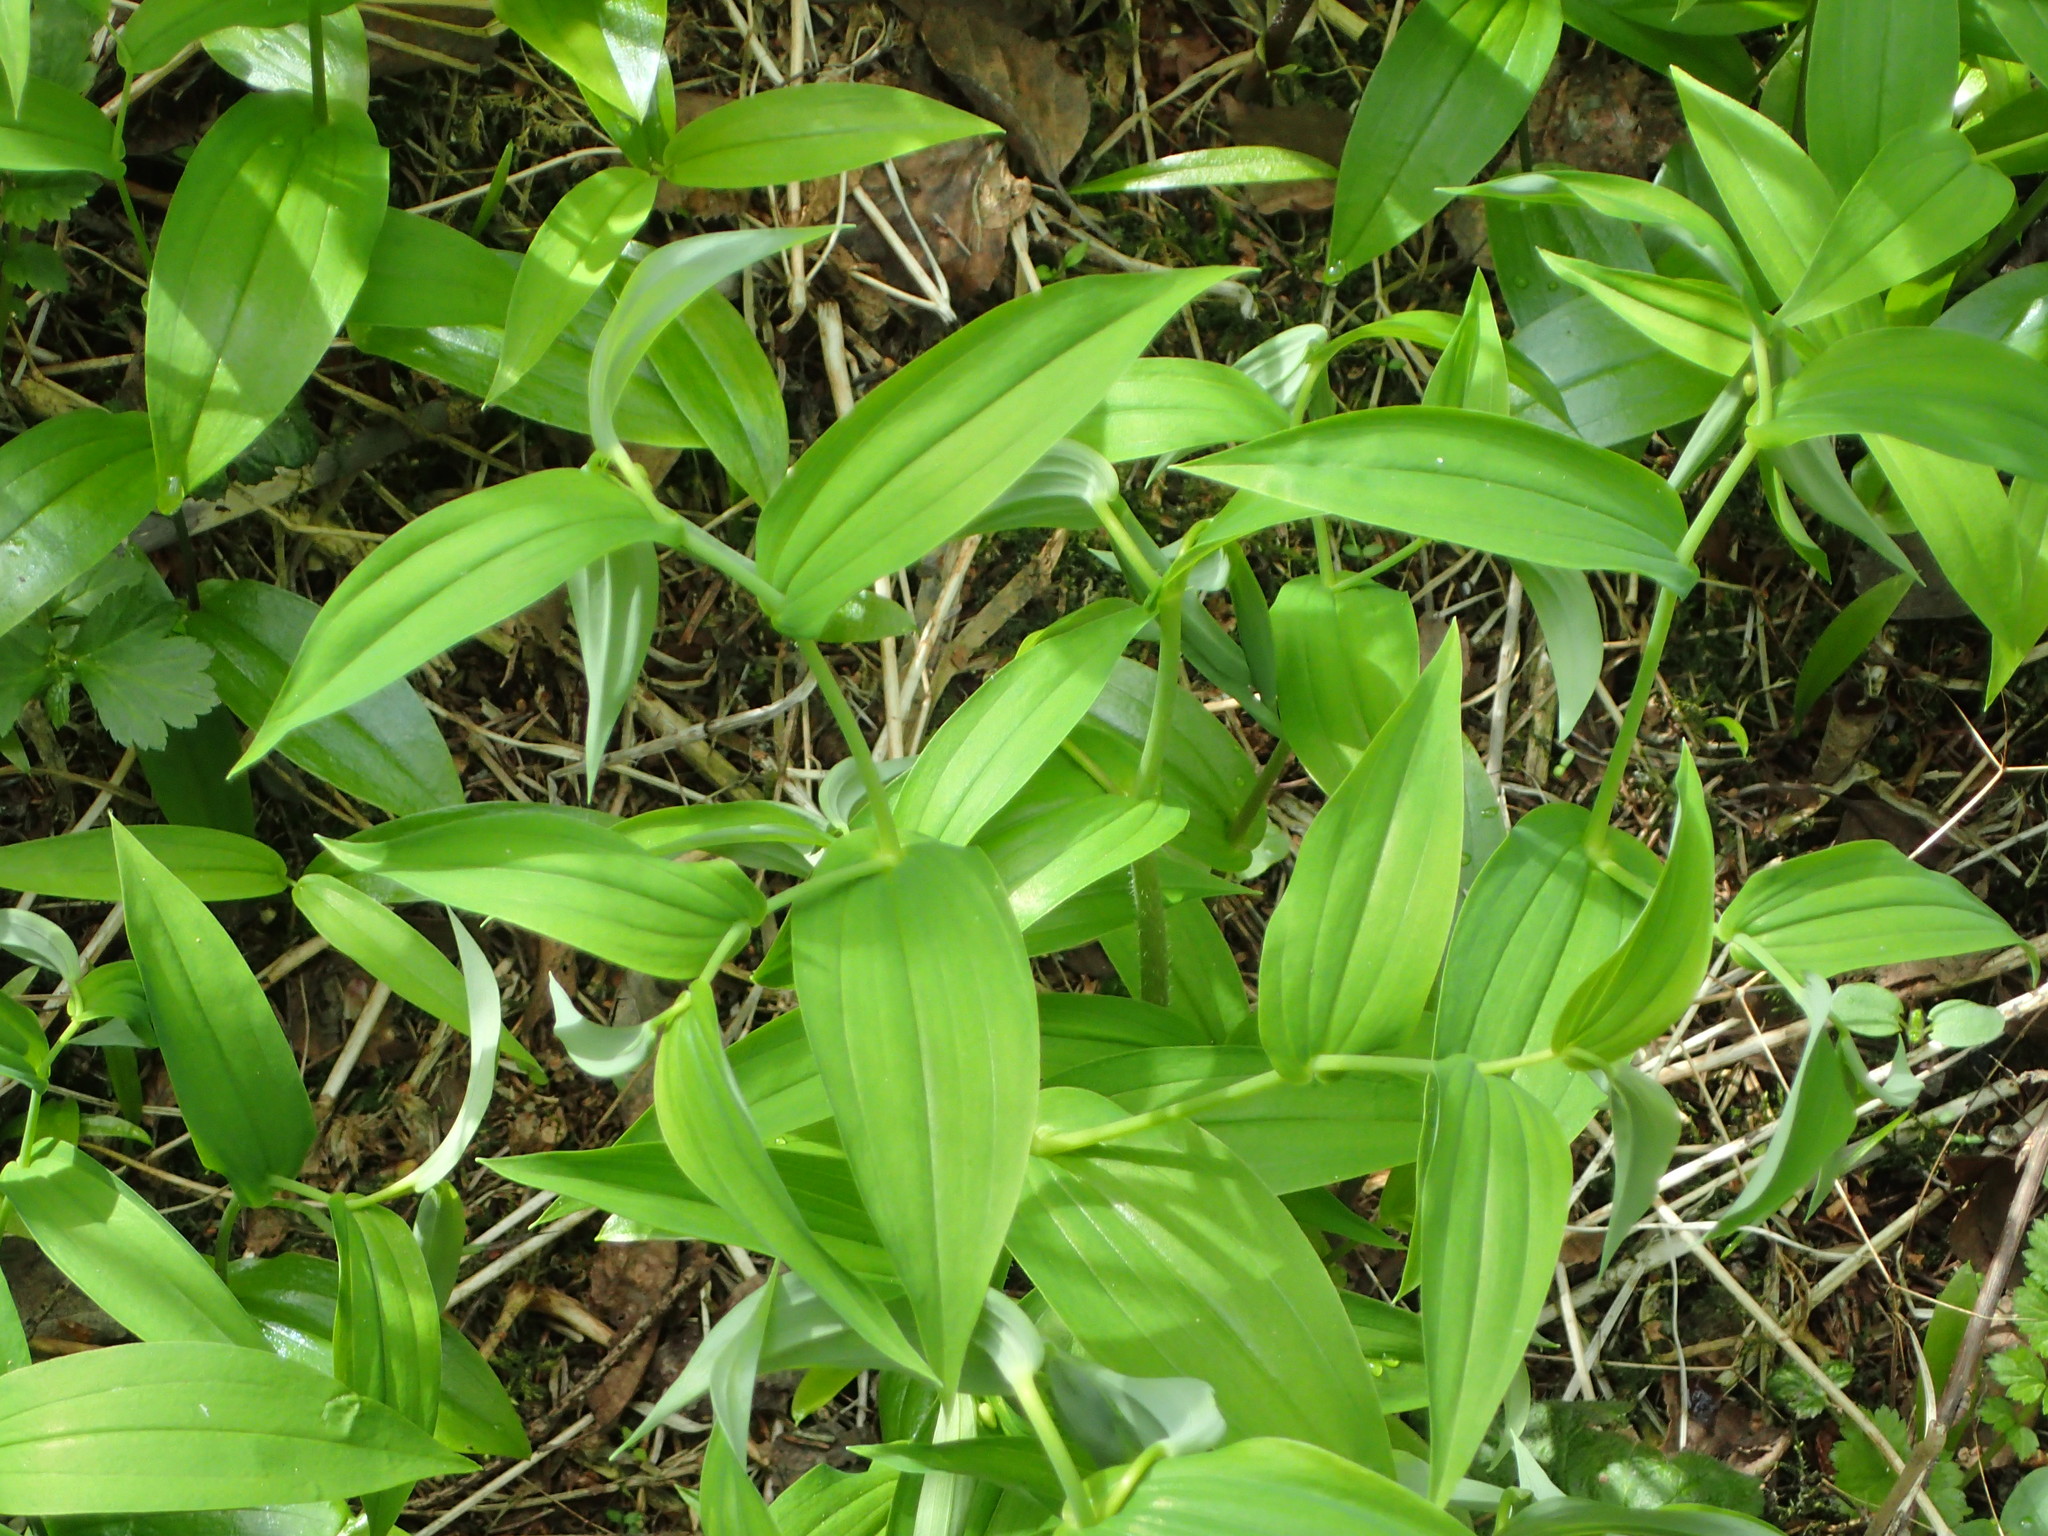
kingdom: Plantae
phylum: Tracheophyta
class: Liliopsida
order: Liliales
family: Liliaceae
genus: Streptopus
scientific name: Streptopus amplexifolius
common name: Clasp twisted stalk
